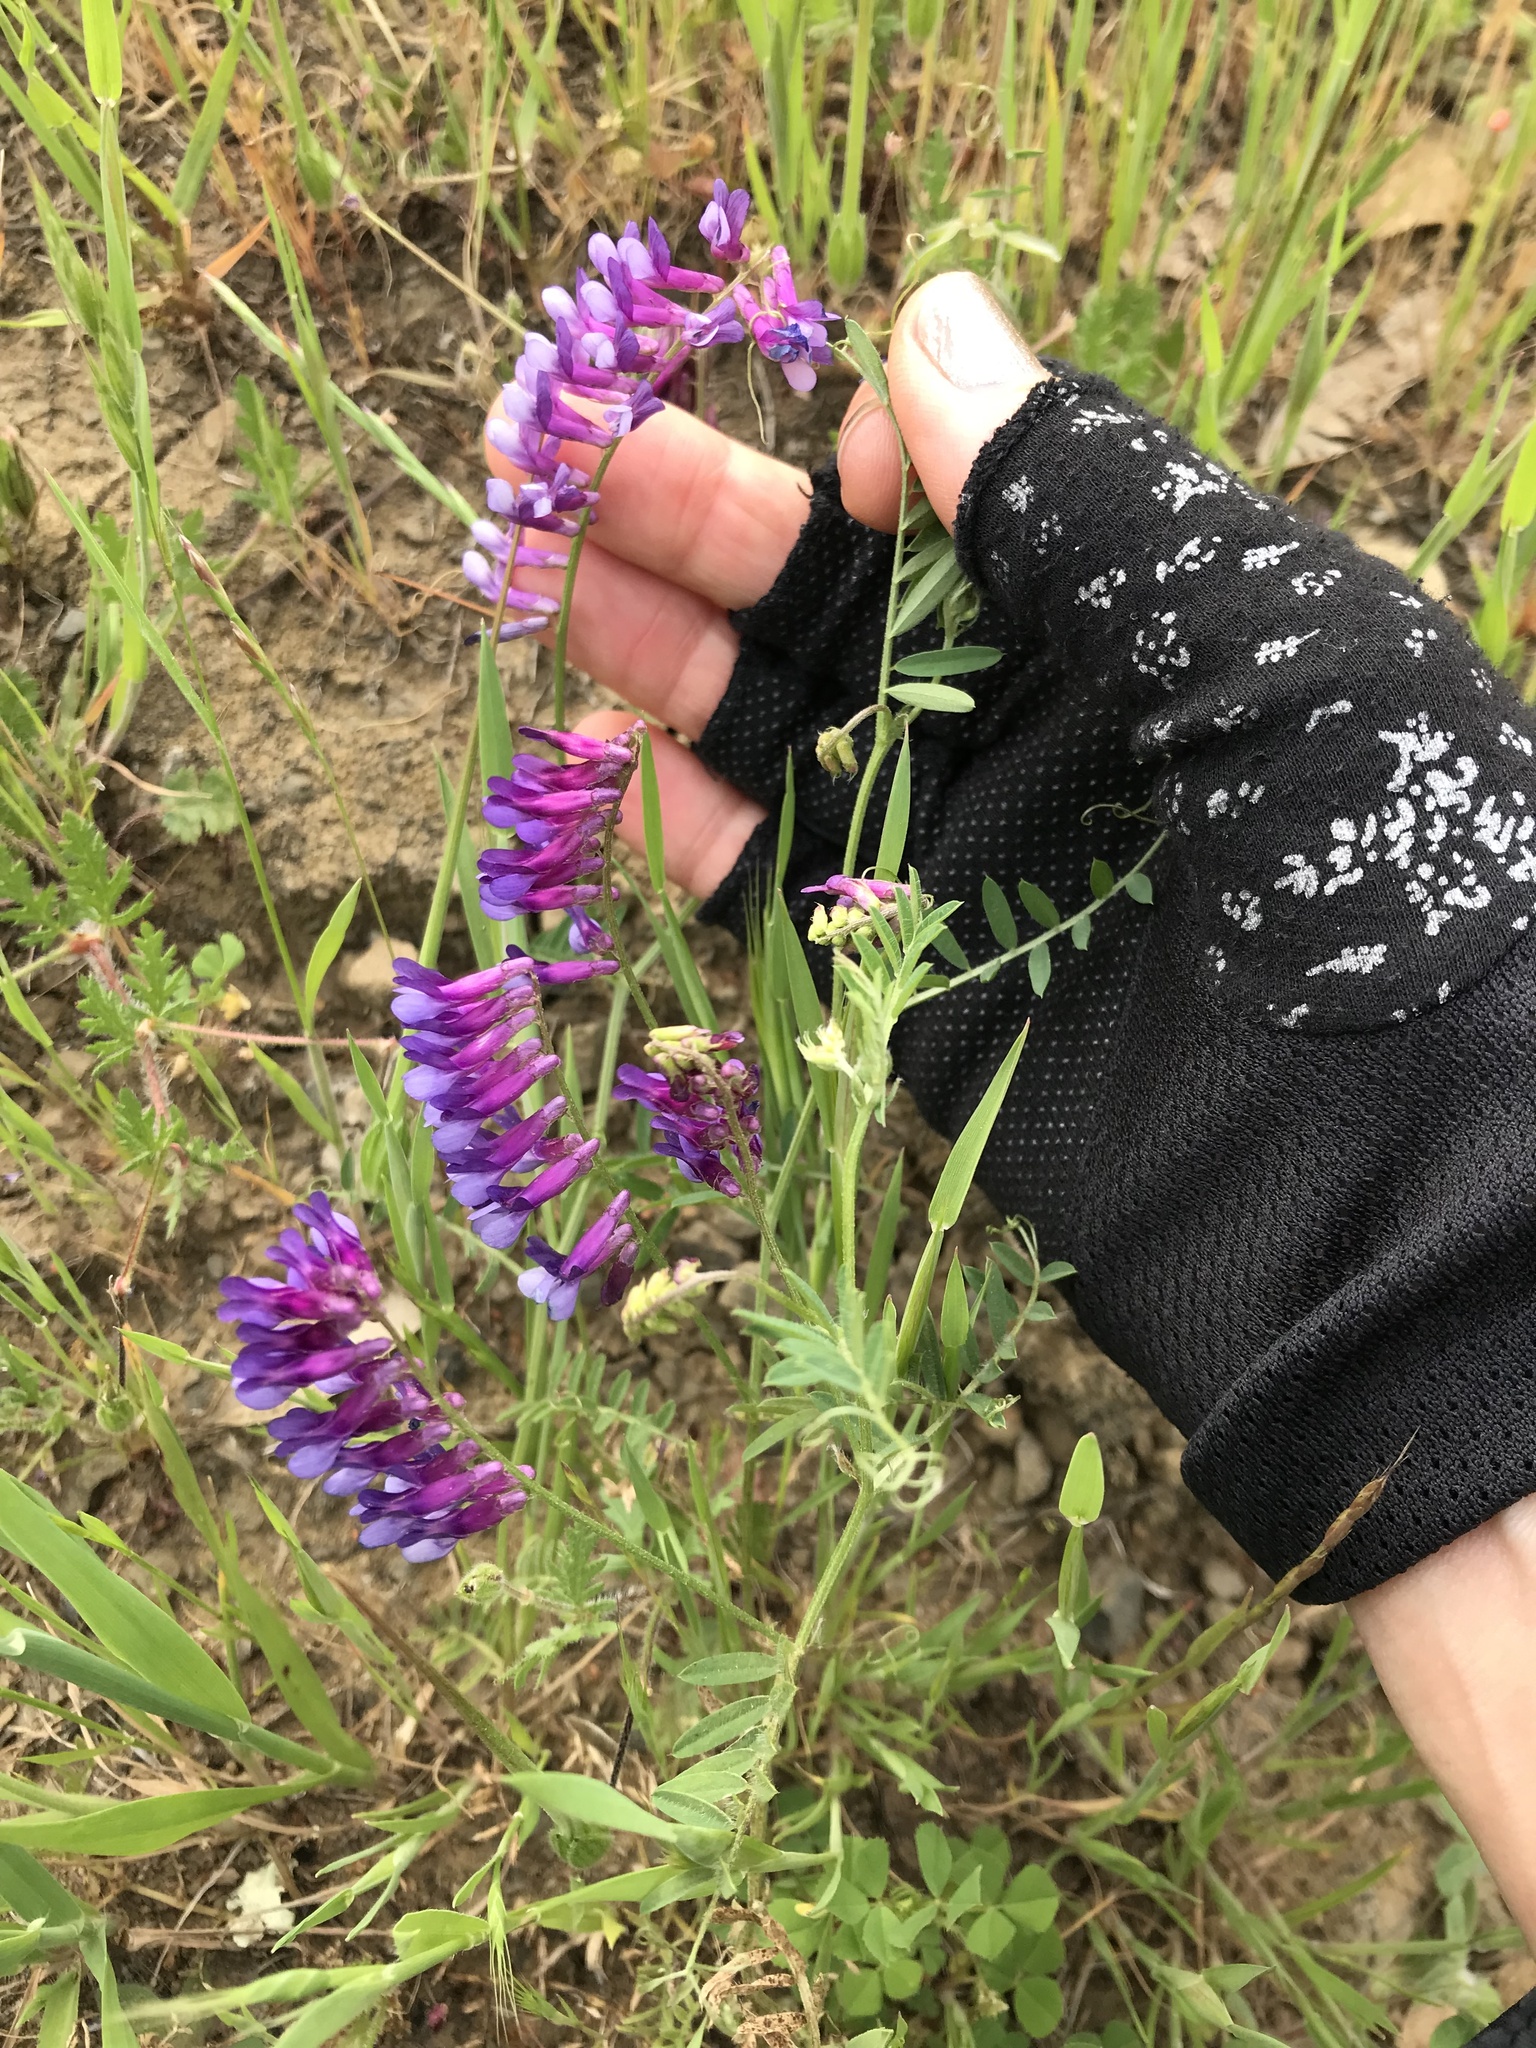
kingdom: Plantae
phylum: Tracheophyta
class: Magnoliopsida
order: Fabales
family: Fabaceae
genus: Vicia
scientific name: Vicia villosa
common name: Fodder vetch
